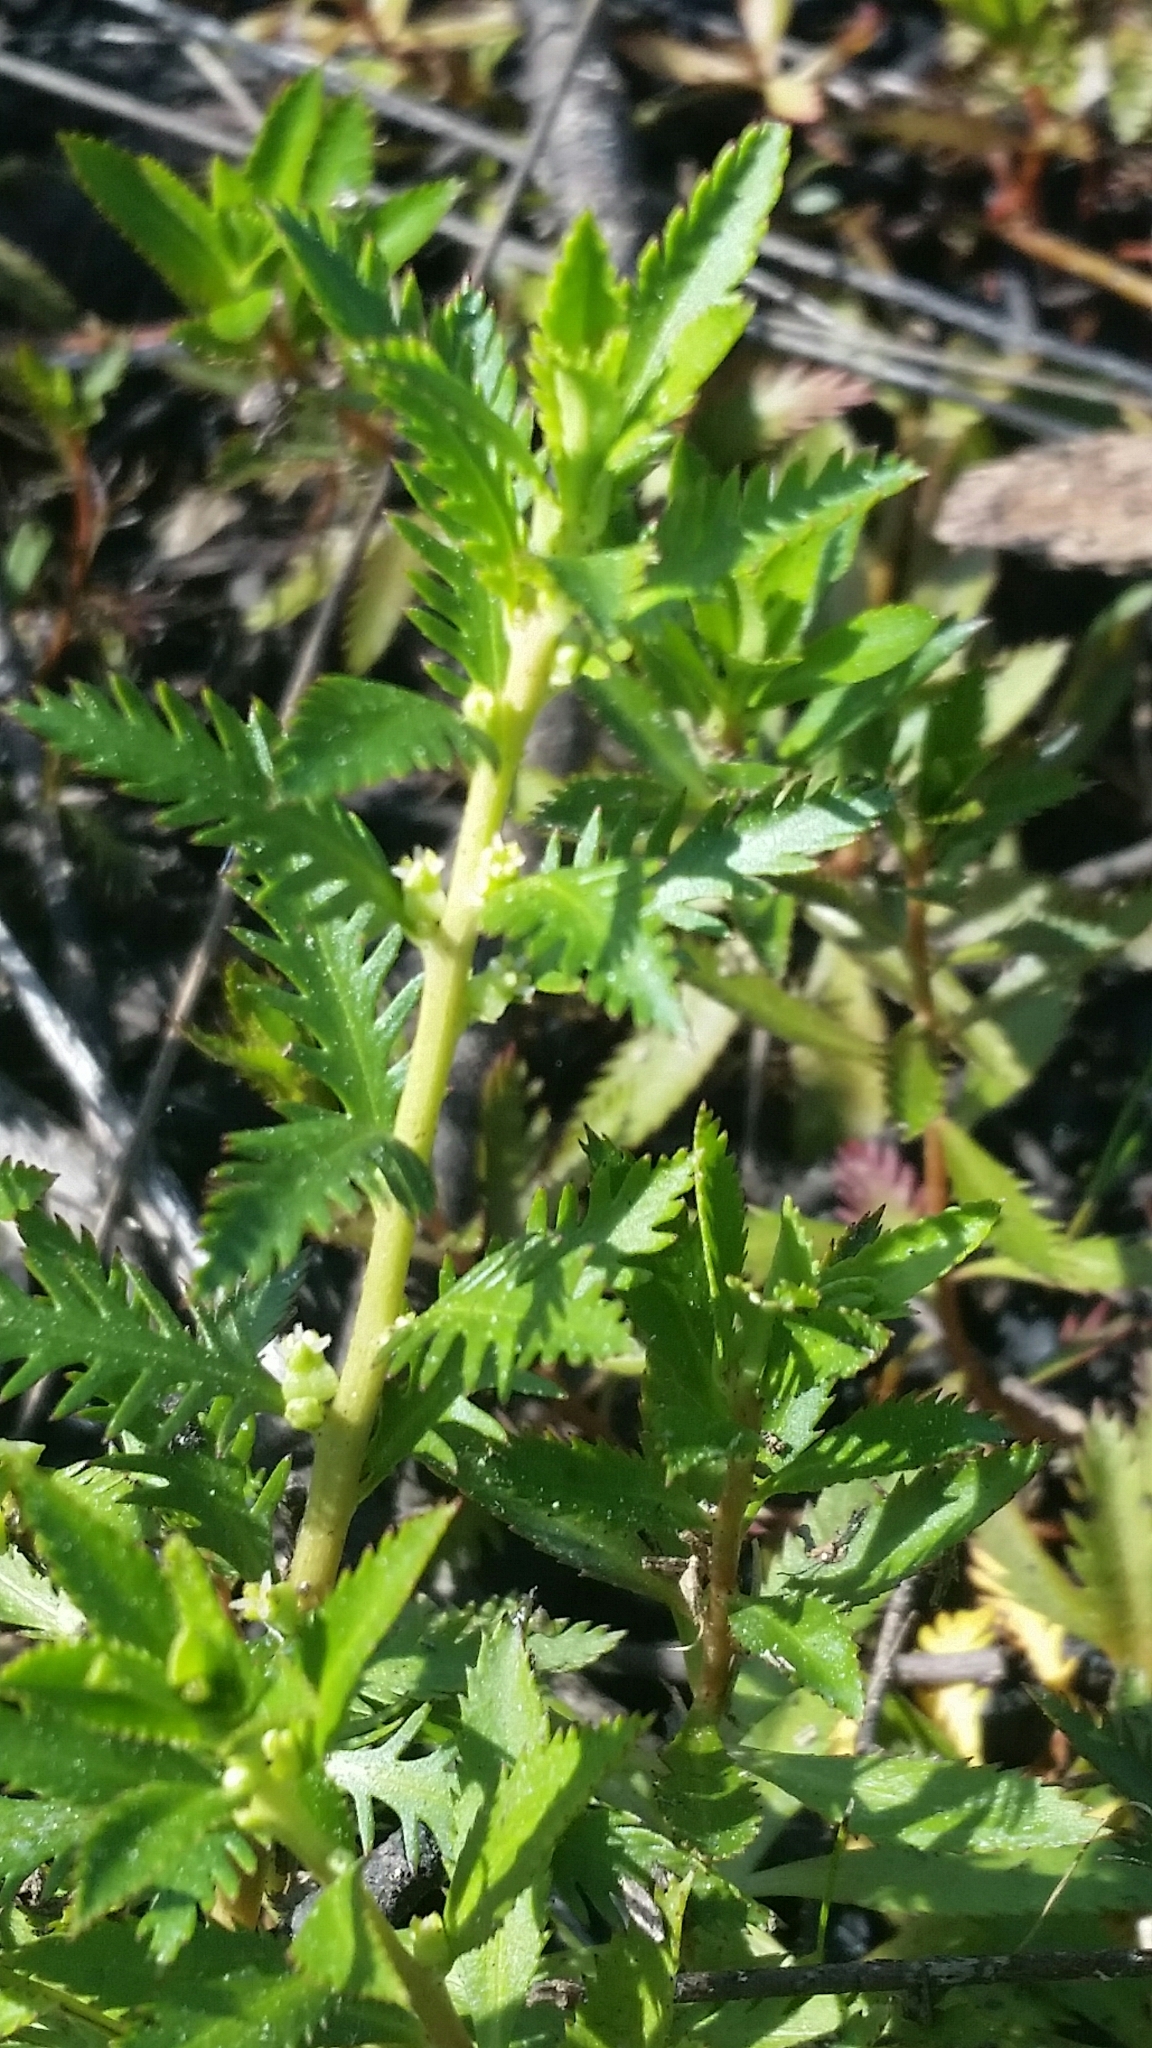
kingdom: Plantae
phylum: Tracheophyta
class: Magnoliopsida
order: Saxifragales
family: Haloragaceae
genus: Proserpinaca
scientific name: Proserpinaca palustris
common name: Marsh mermaidweed
